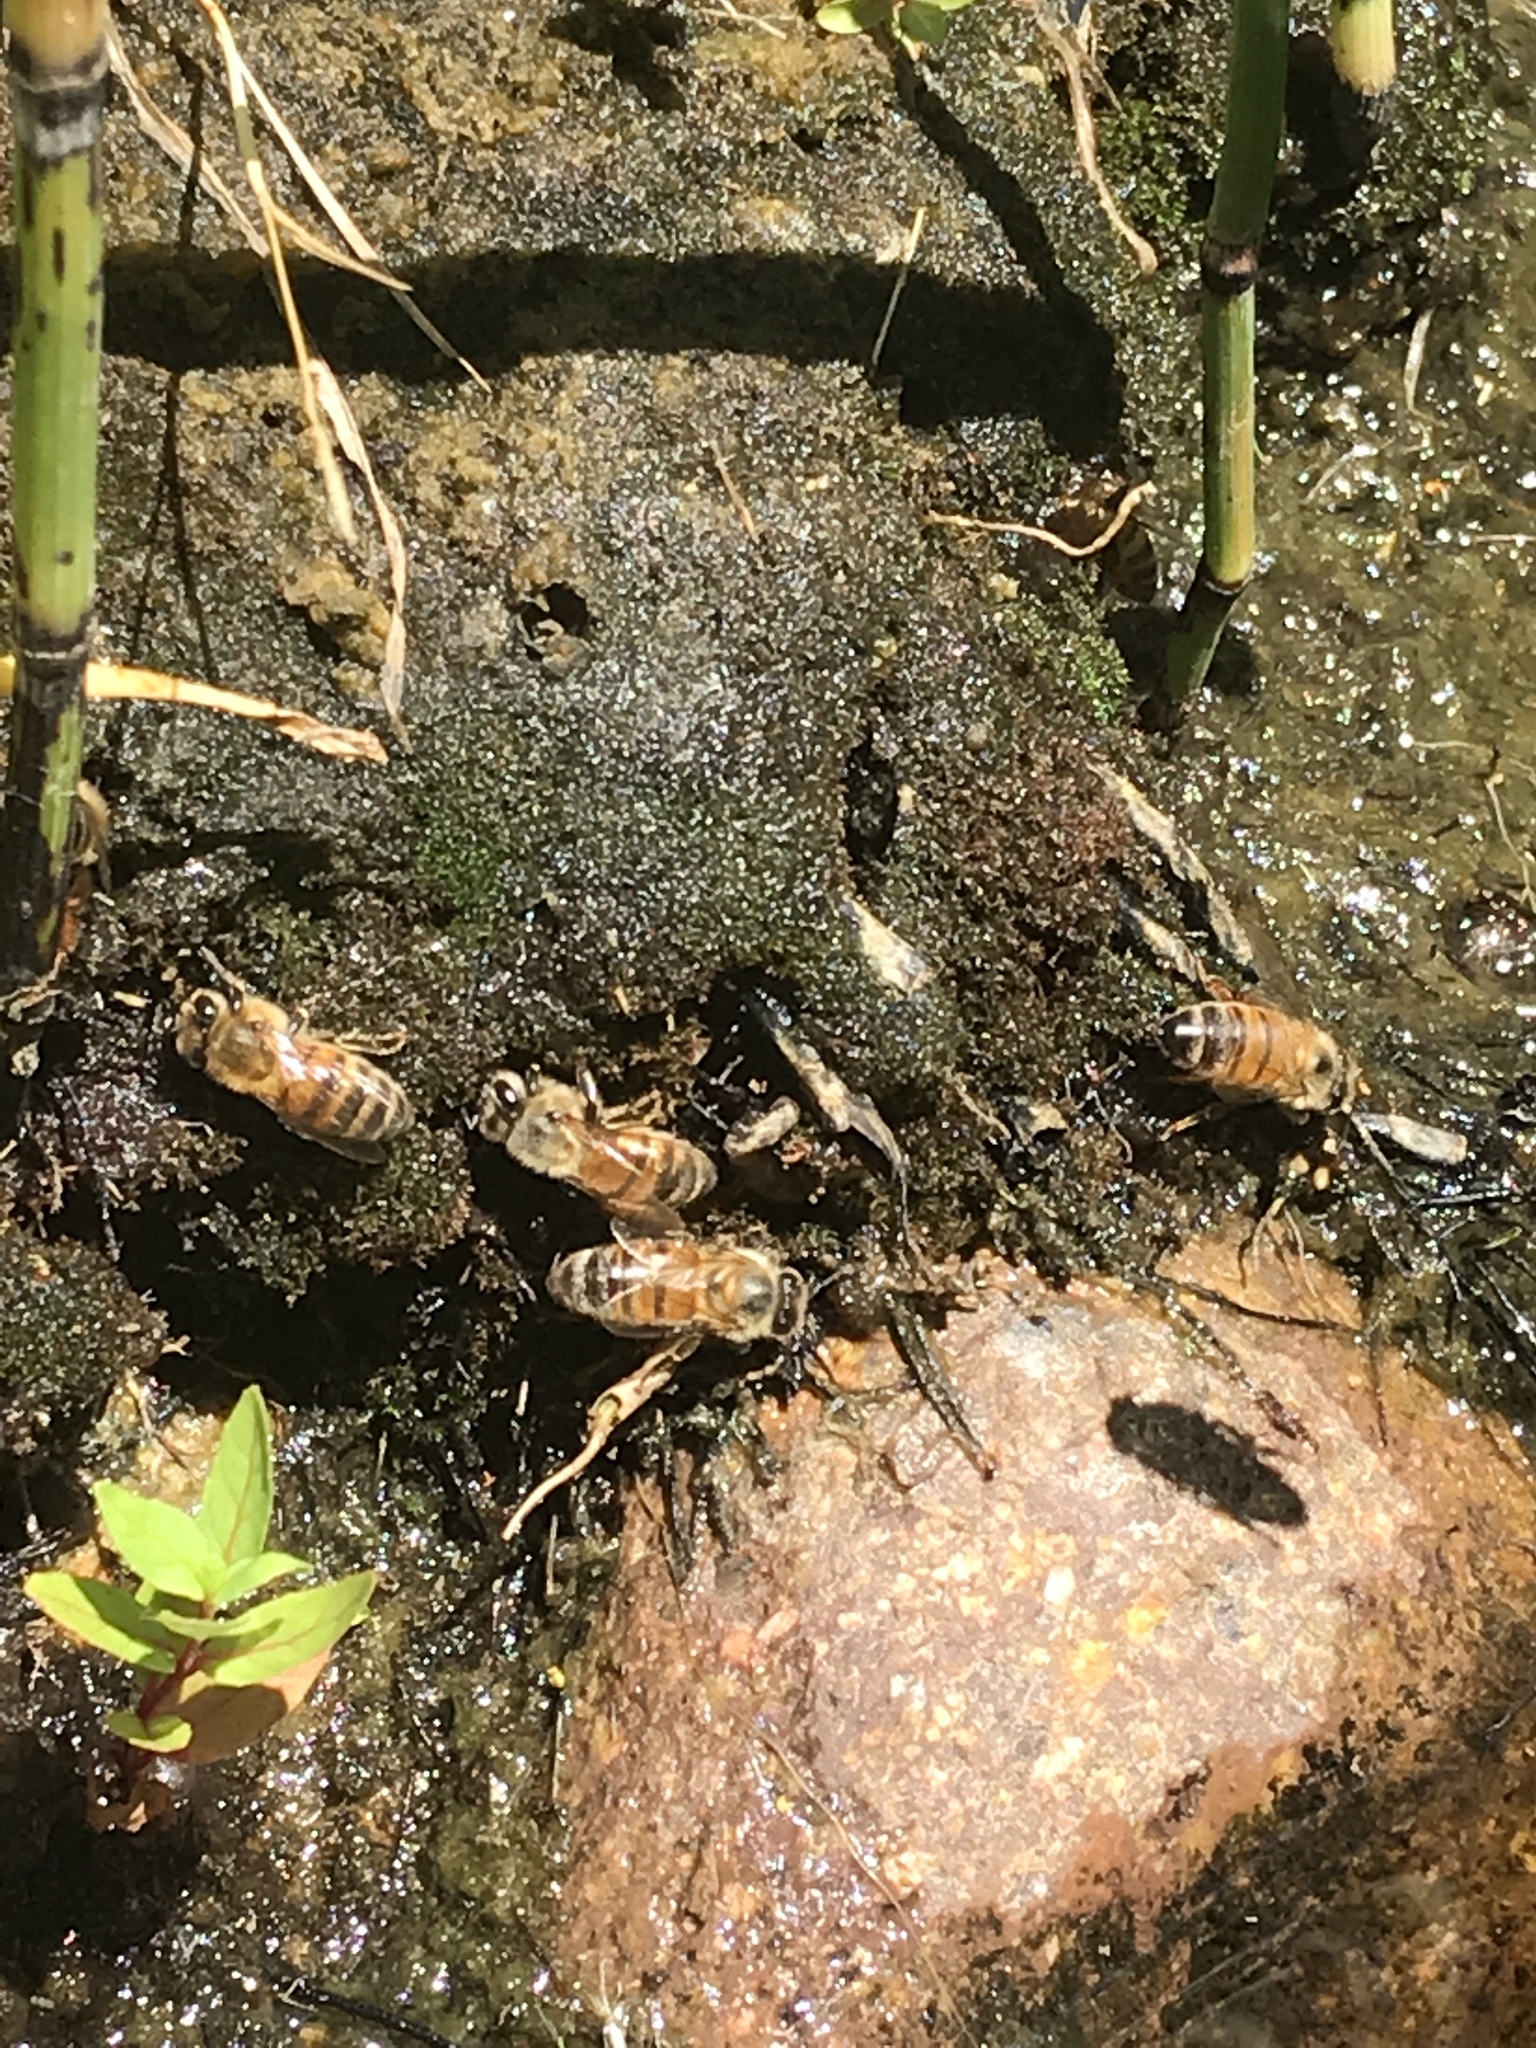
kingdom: Animalia
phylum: Arthropoda
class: Insecta
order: Hymenoptera
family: Apidae
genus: Apis
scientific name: Apis mellifera
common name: Honey bee
